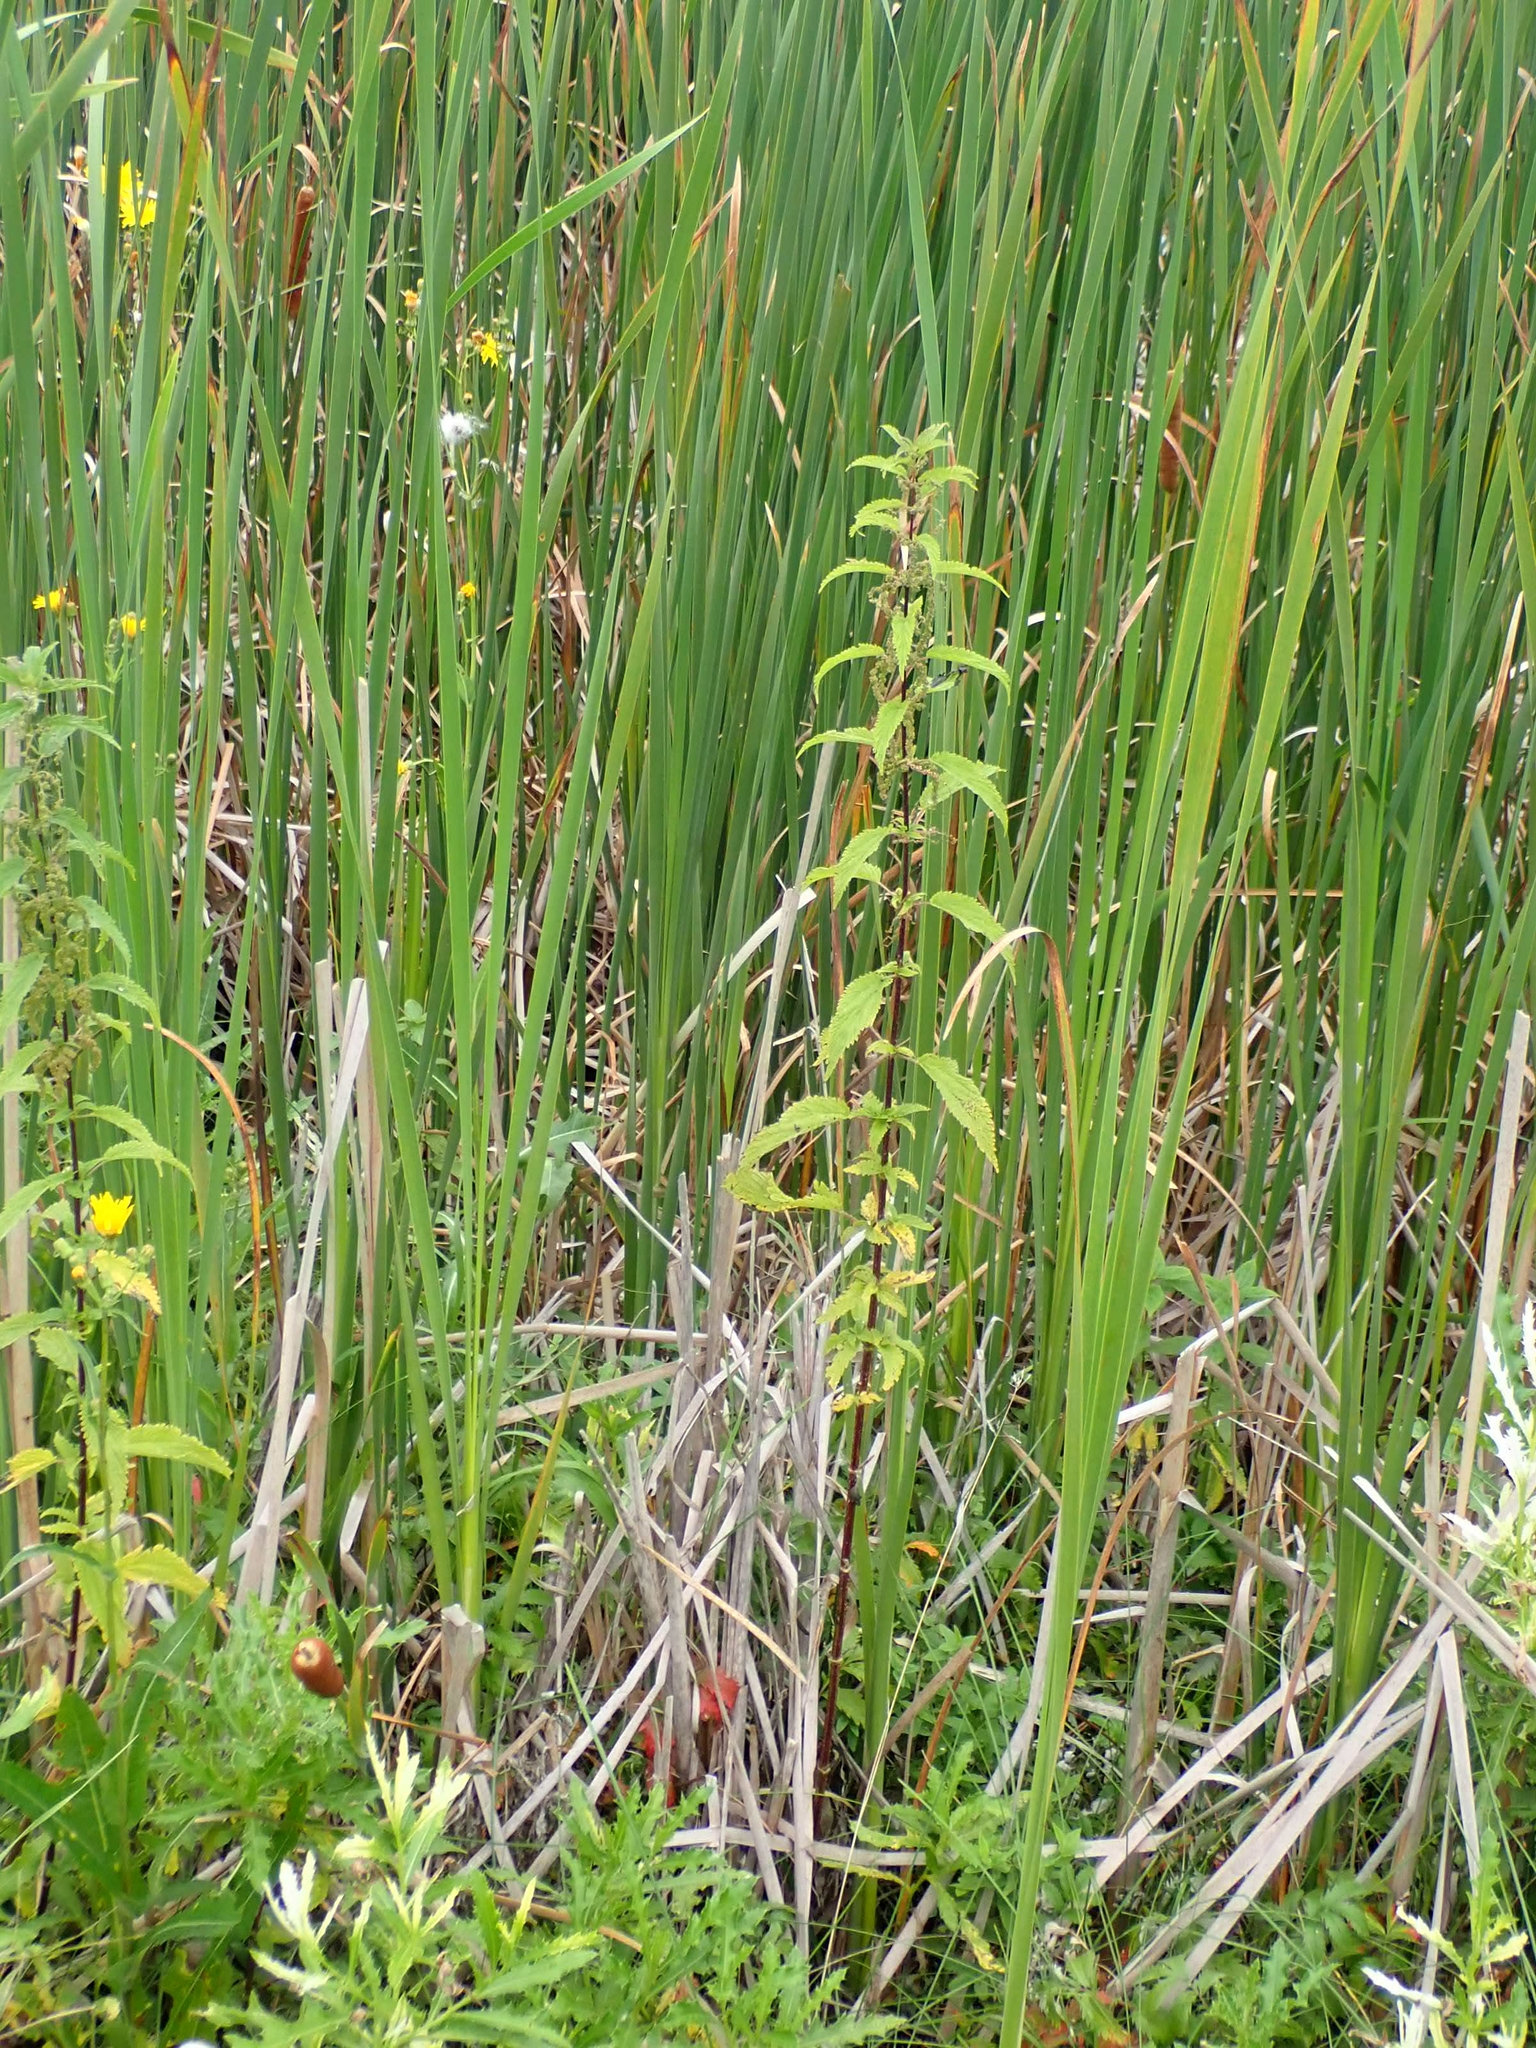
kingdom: Plantae
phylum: Tracheophyta
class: Magnoliopsida
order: Rosales
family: Urticaceae
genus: Urtica
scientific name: Urtica gracilis
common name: Slender stinging nettle
